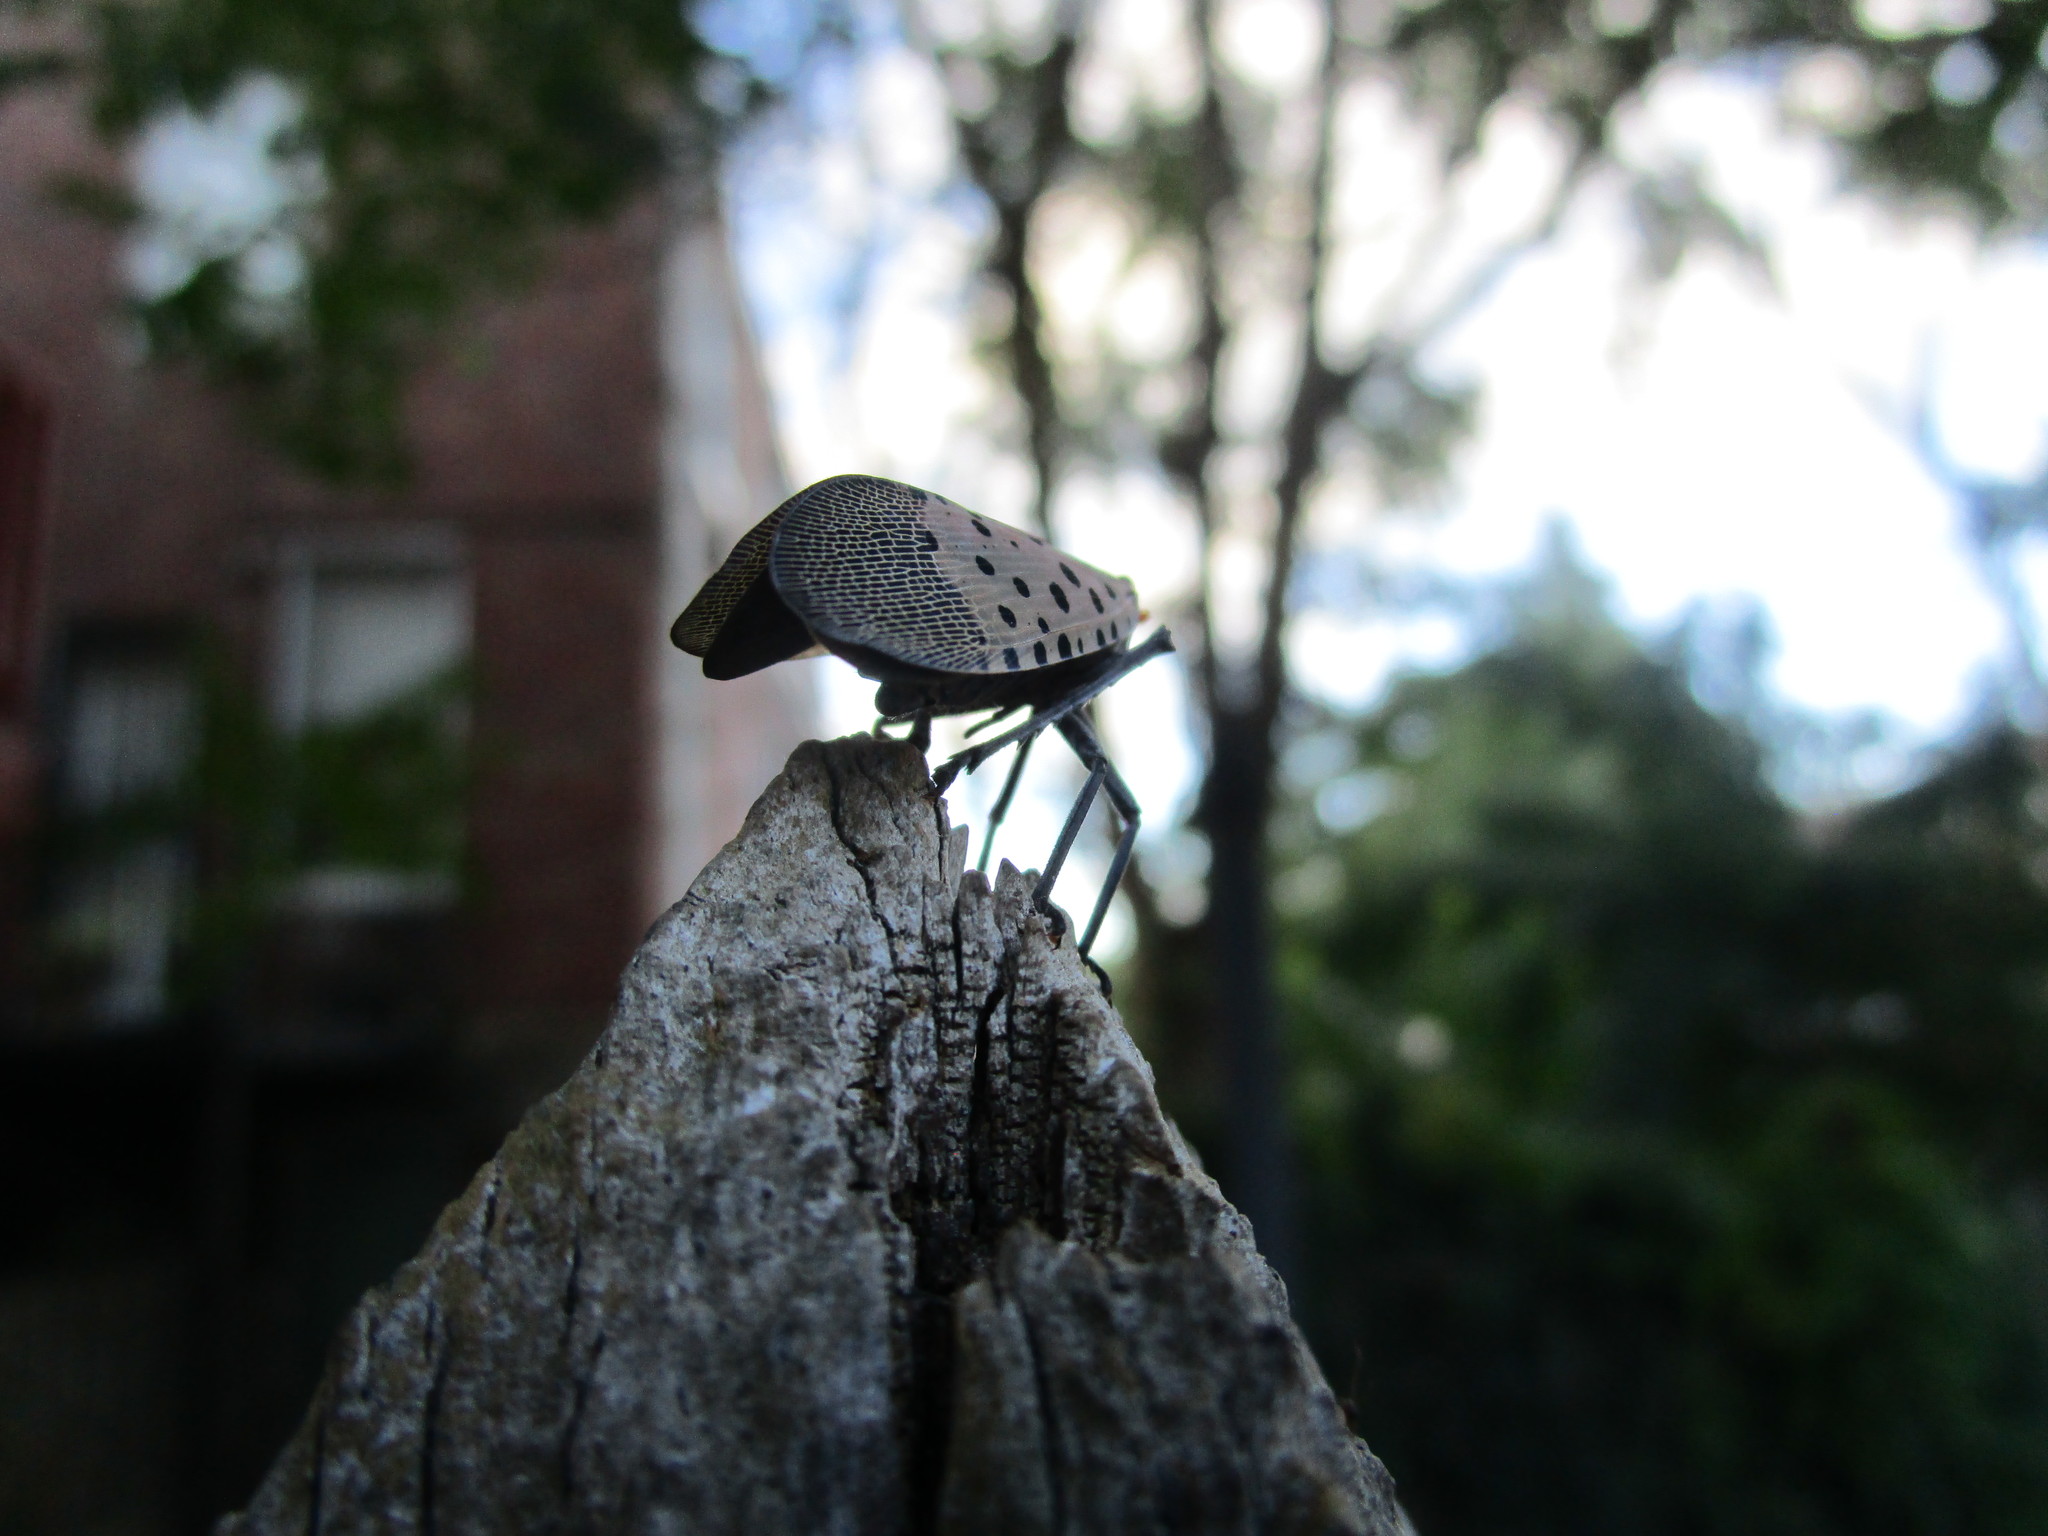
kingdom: Animalia
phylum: Arthropoda
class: Insecta
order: Hemiptera
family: Fulgoridae
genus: Lycorma
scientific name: Lycorma delicatula
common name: Spotted lanternfly
